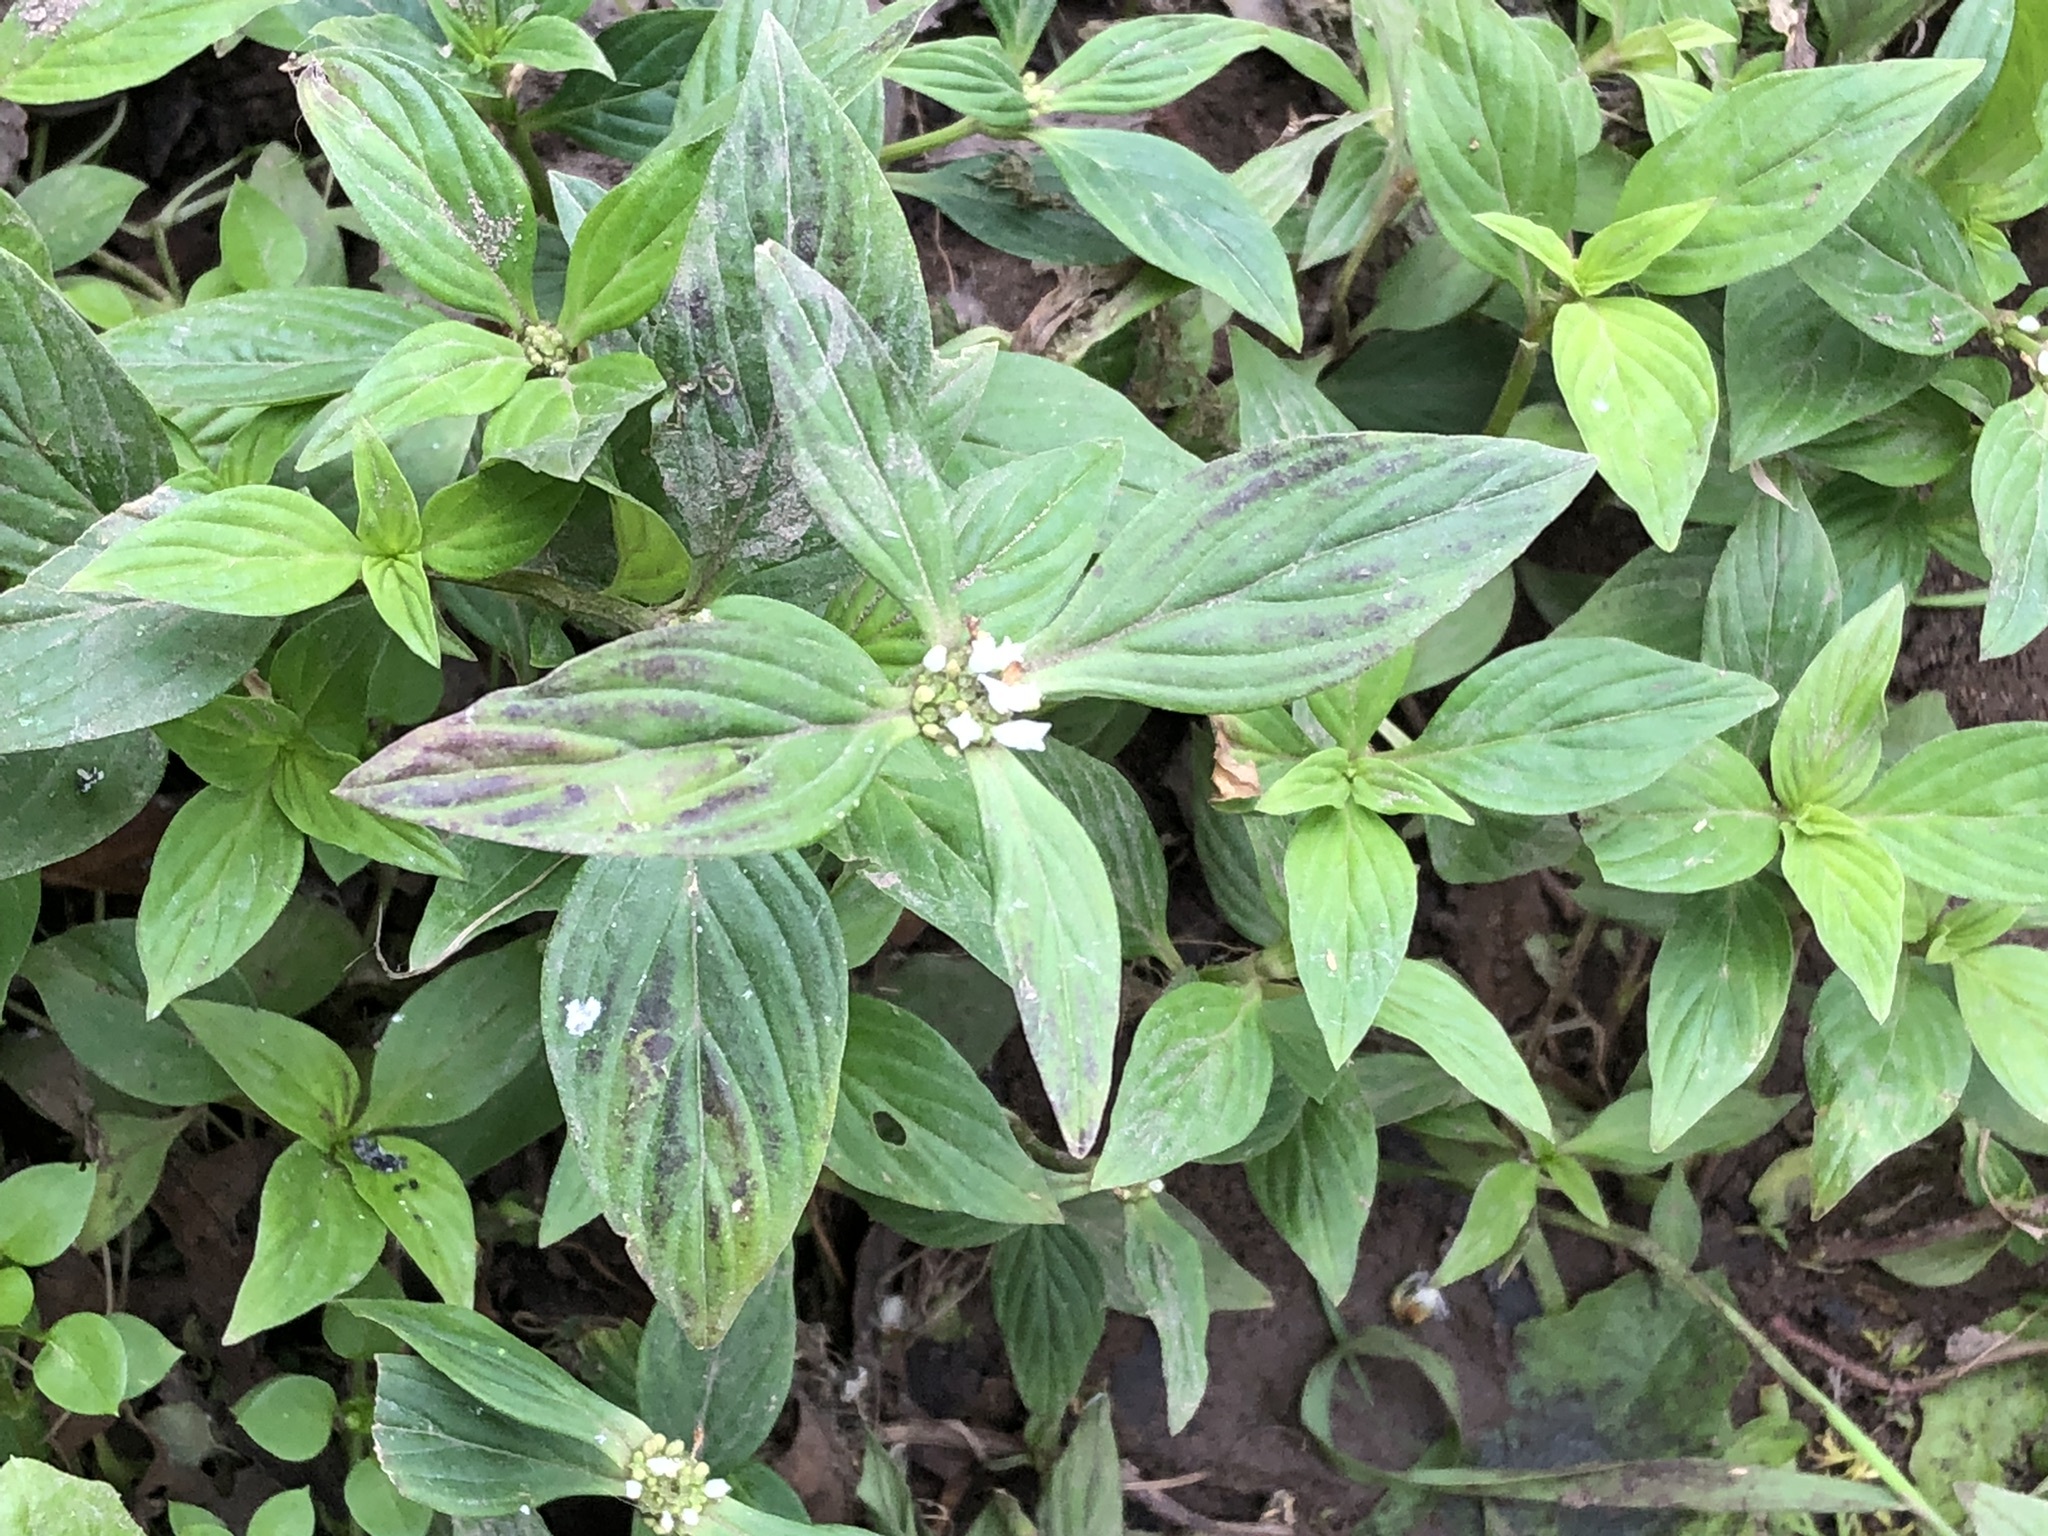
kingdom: Plantae
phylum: Tracheophyta
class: Magnoliopsida
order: Gentianales
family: Rubiaceae
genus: Spermacoce
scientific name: Spermacoce remota
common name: Woodland false buttonweed
